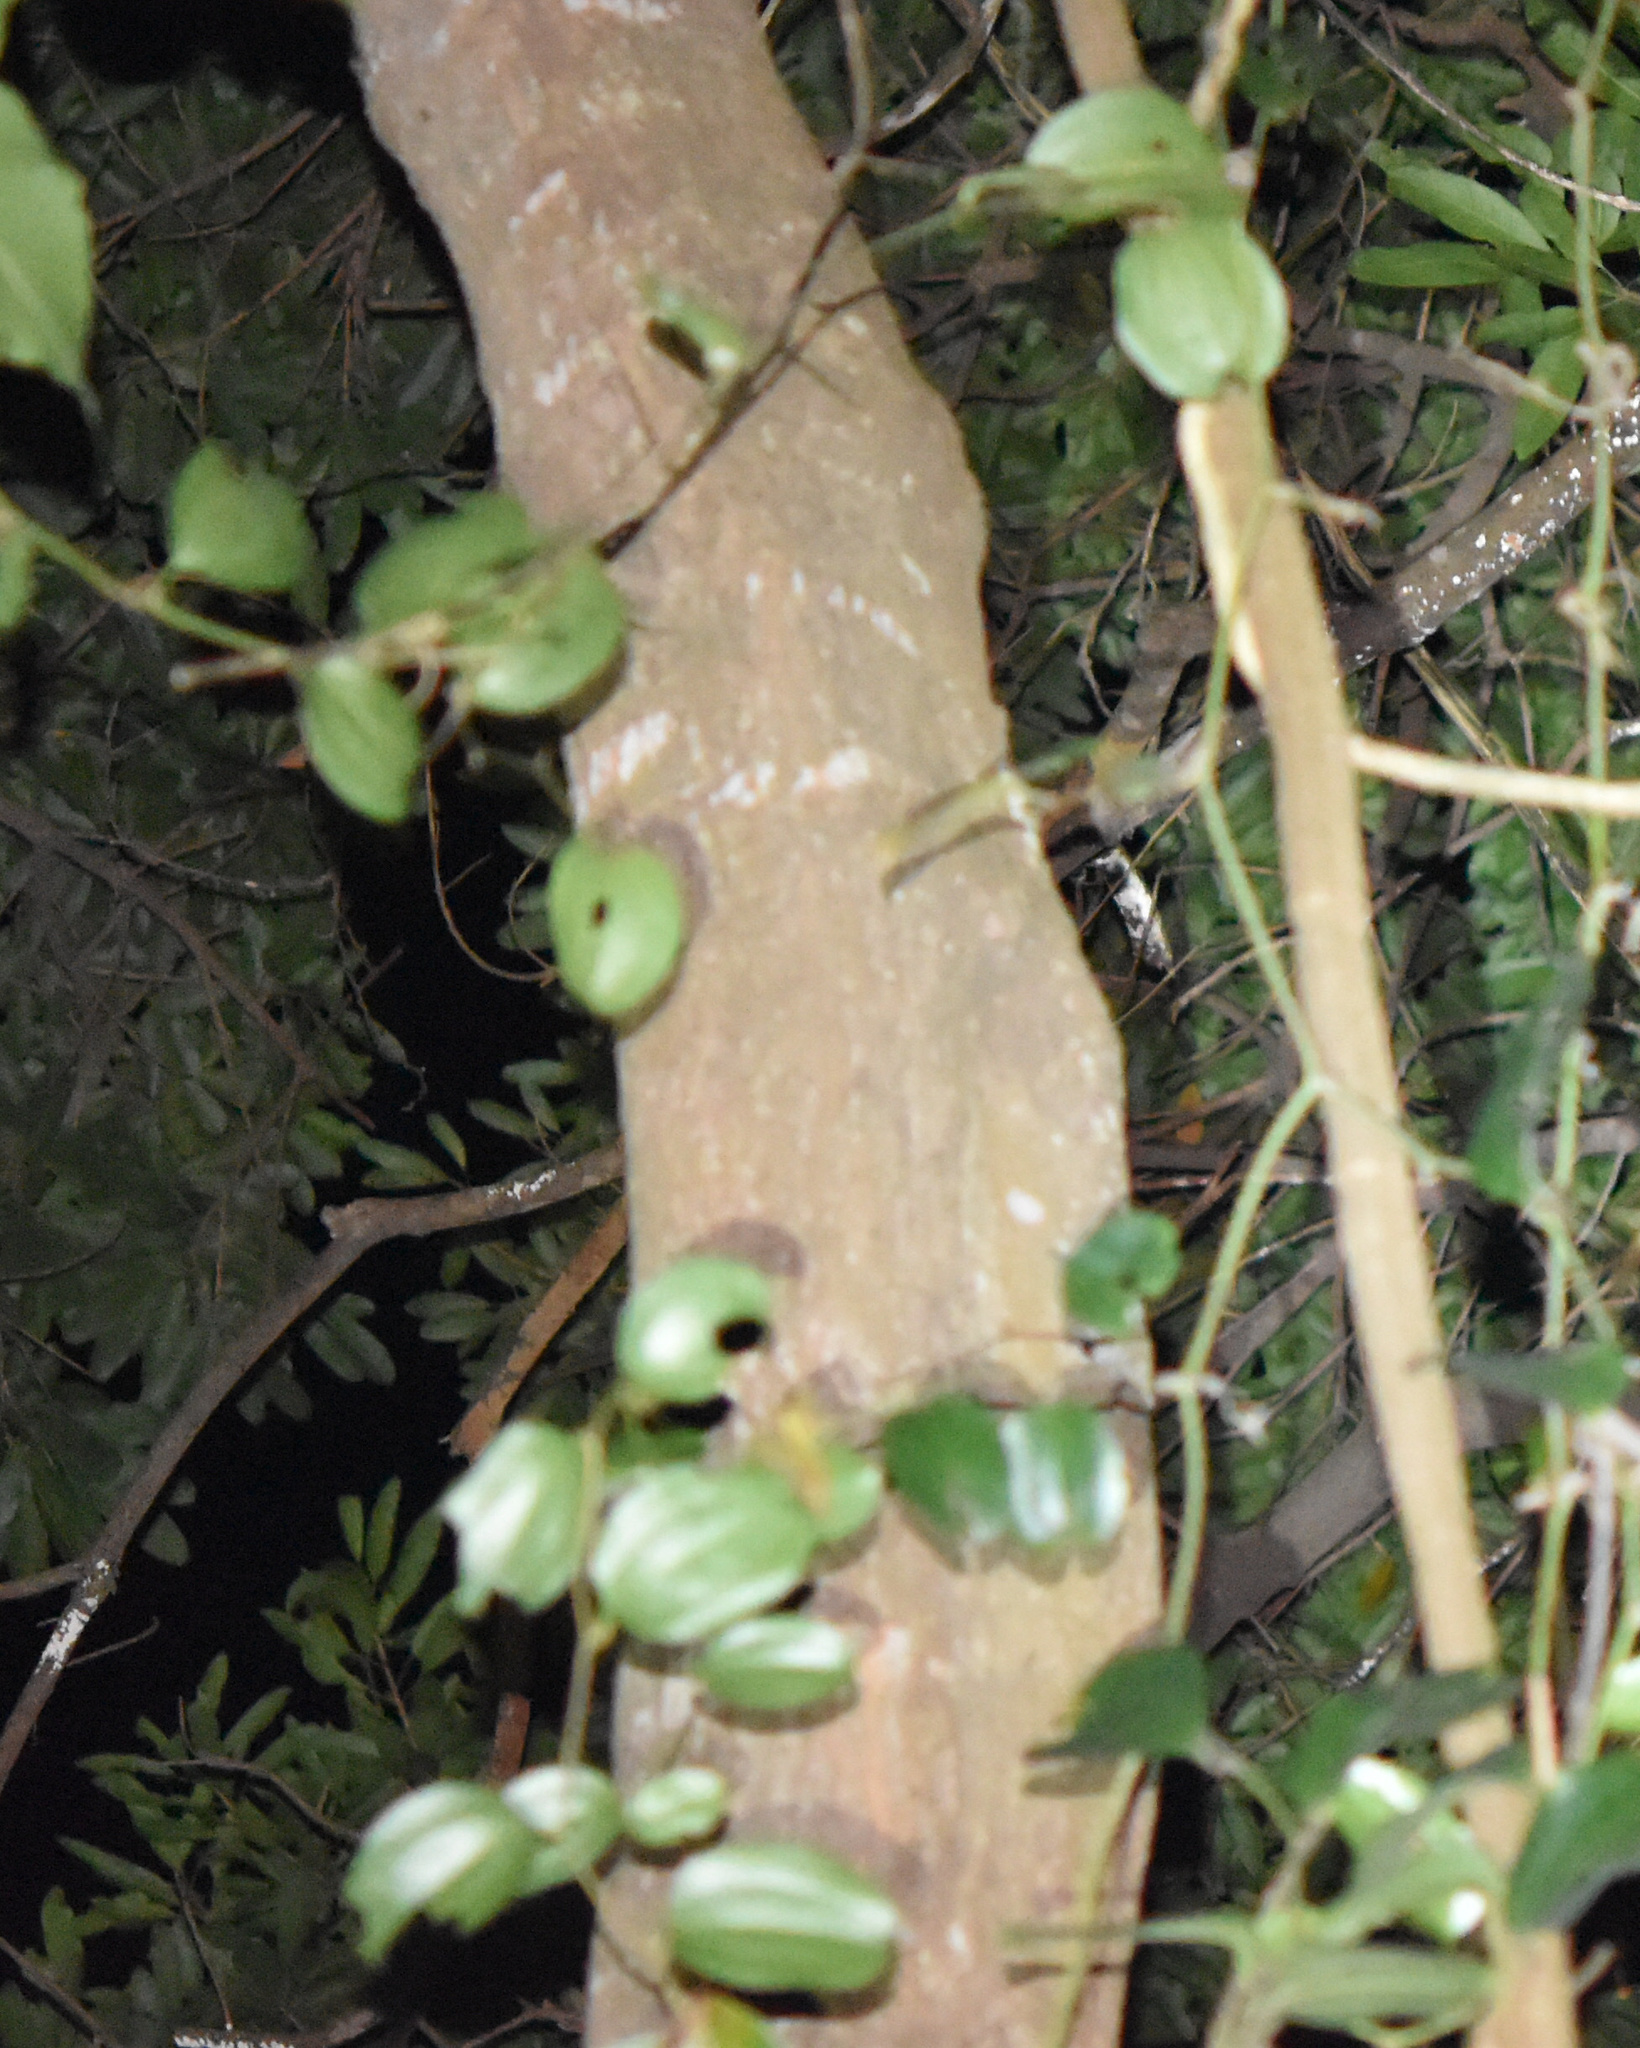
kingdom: Plantae
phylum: Tracheophyta
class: Liliopsida
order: Liliales
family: Smilacaceae
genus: Smilax
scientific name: Smilax anceps
